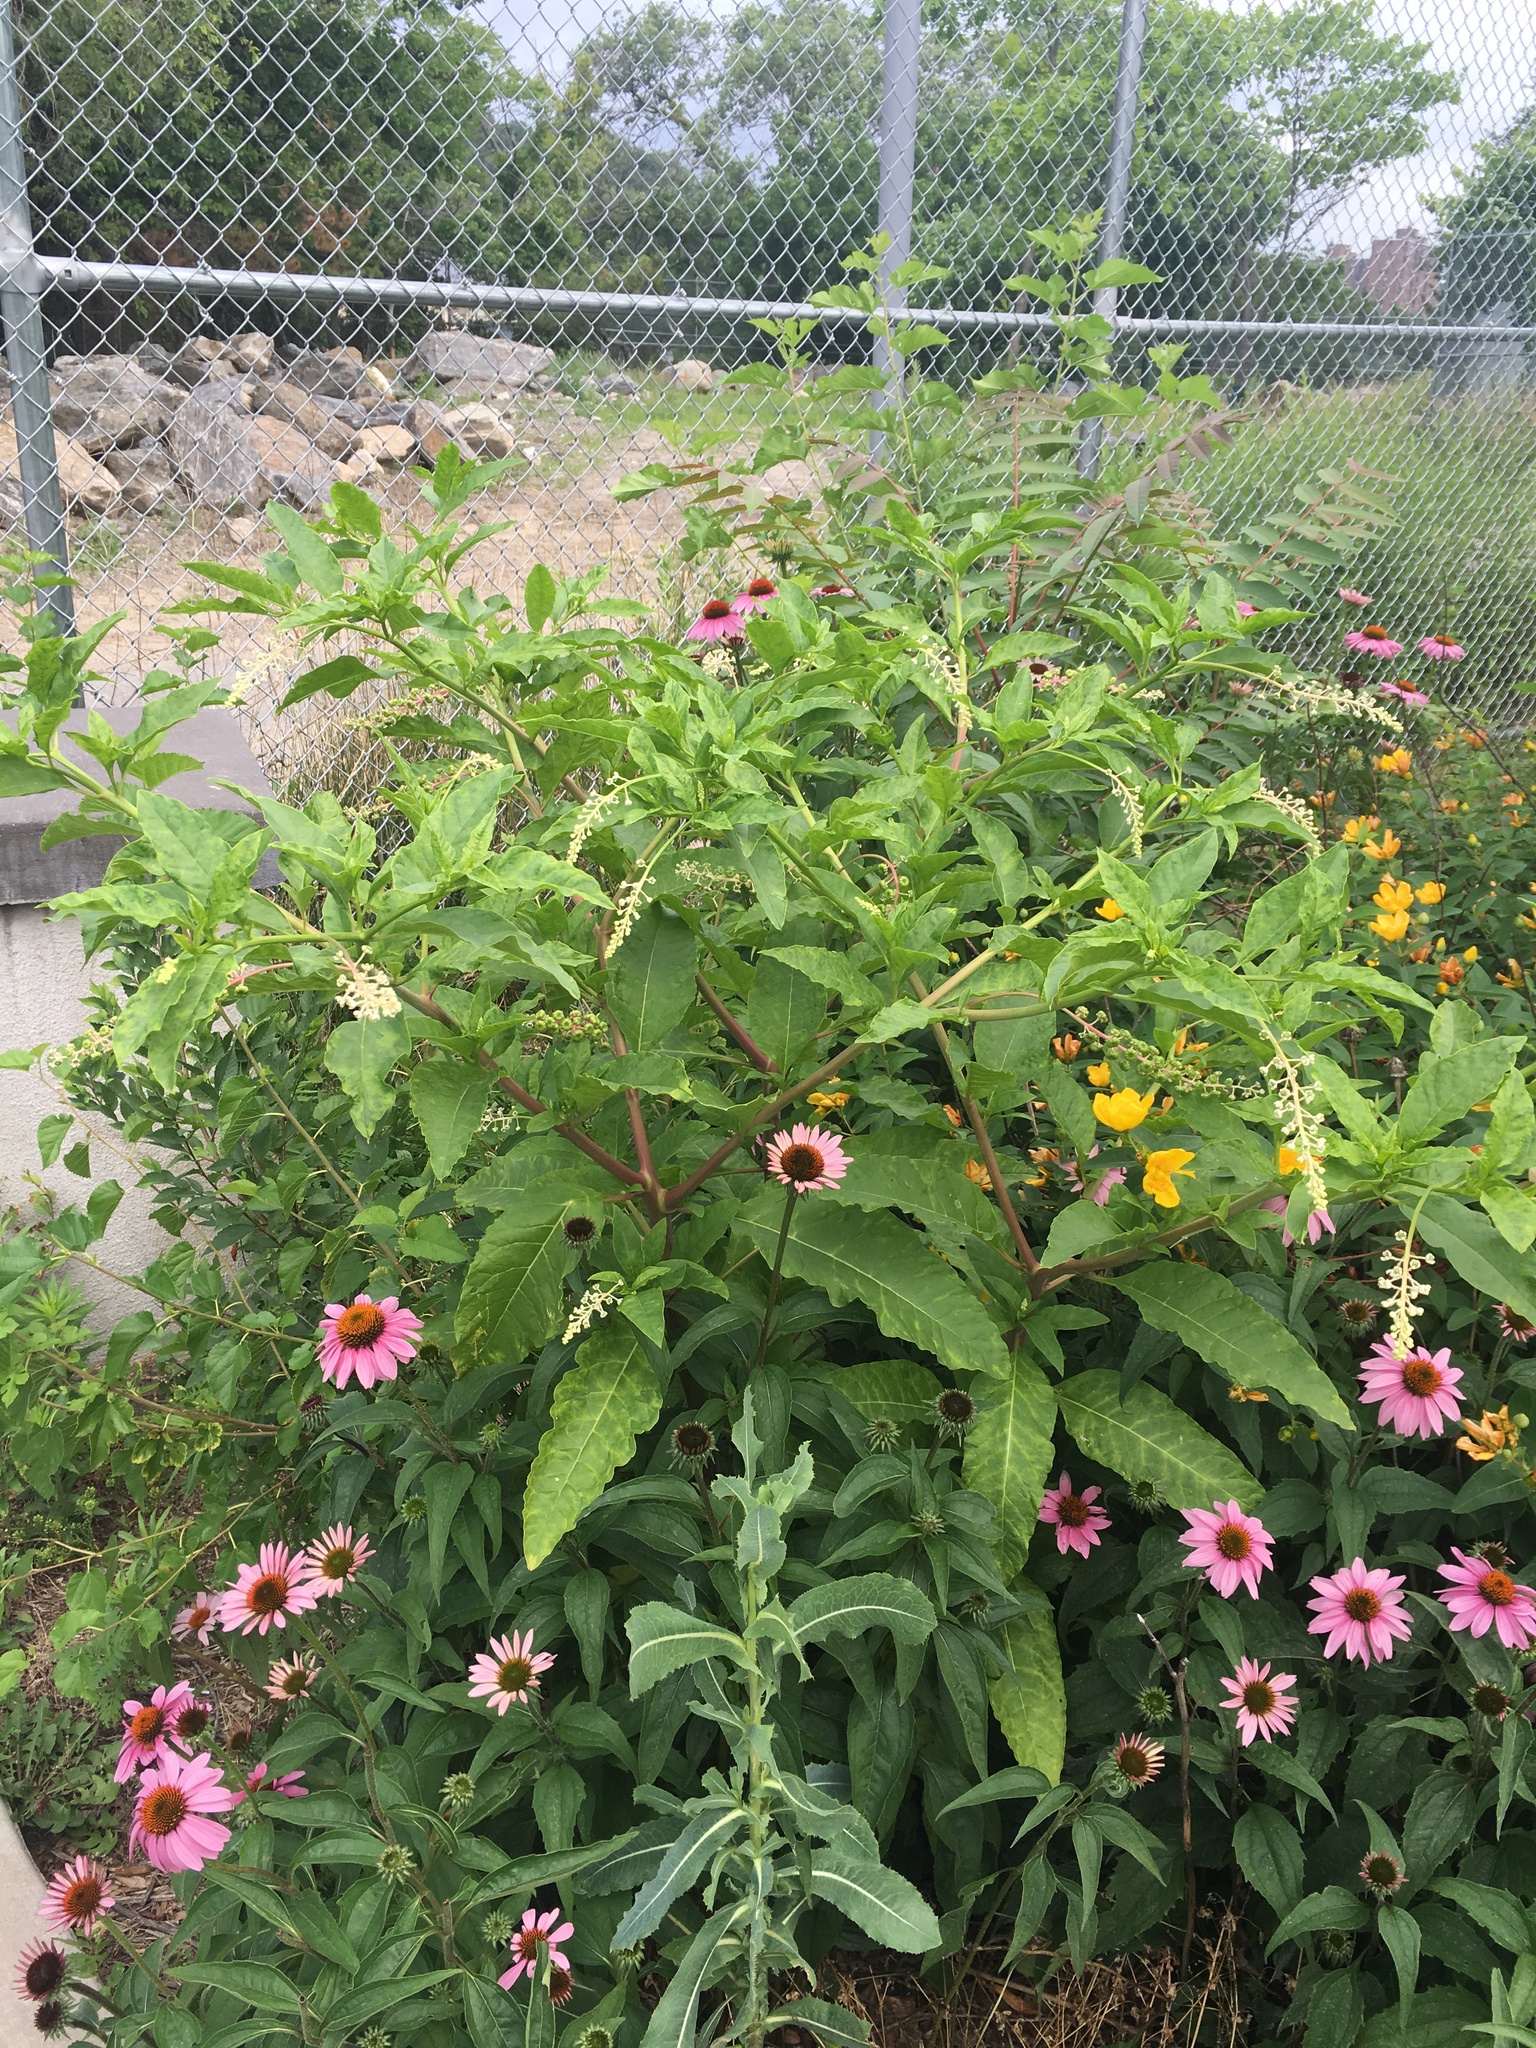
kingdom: Plantae
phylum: Tracheophyta
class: Magnoliopsida
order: Caryophyllales
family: Phytolaccaceae
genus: Phytolacca
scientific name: Phytolacca americana
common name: American pokeweed
